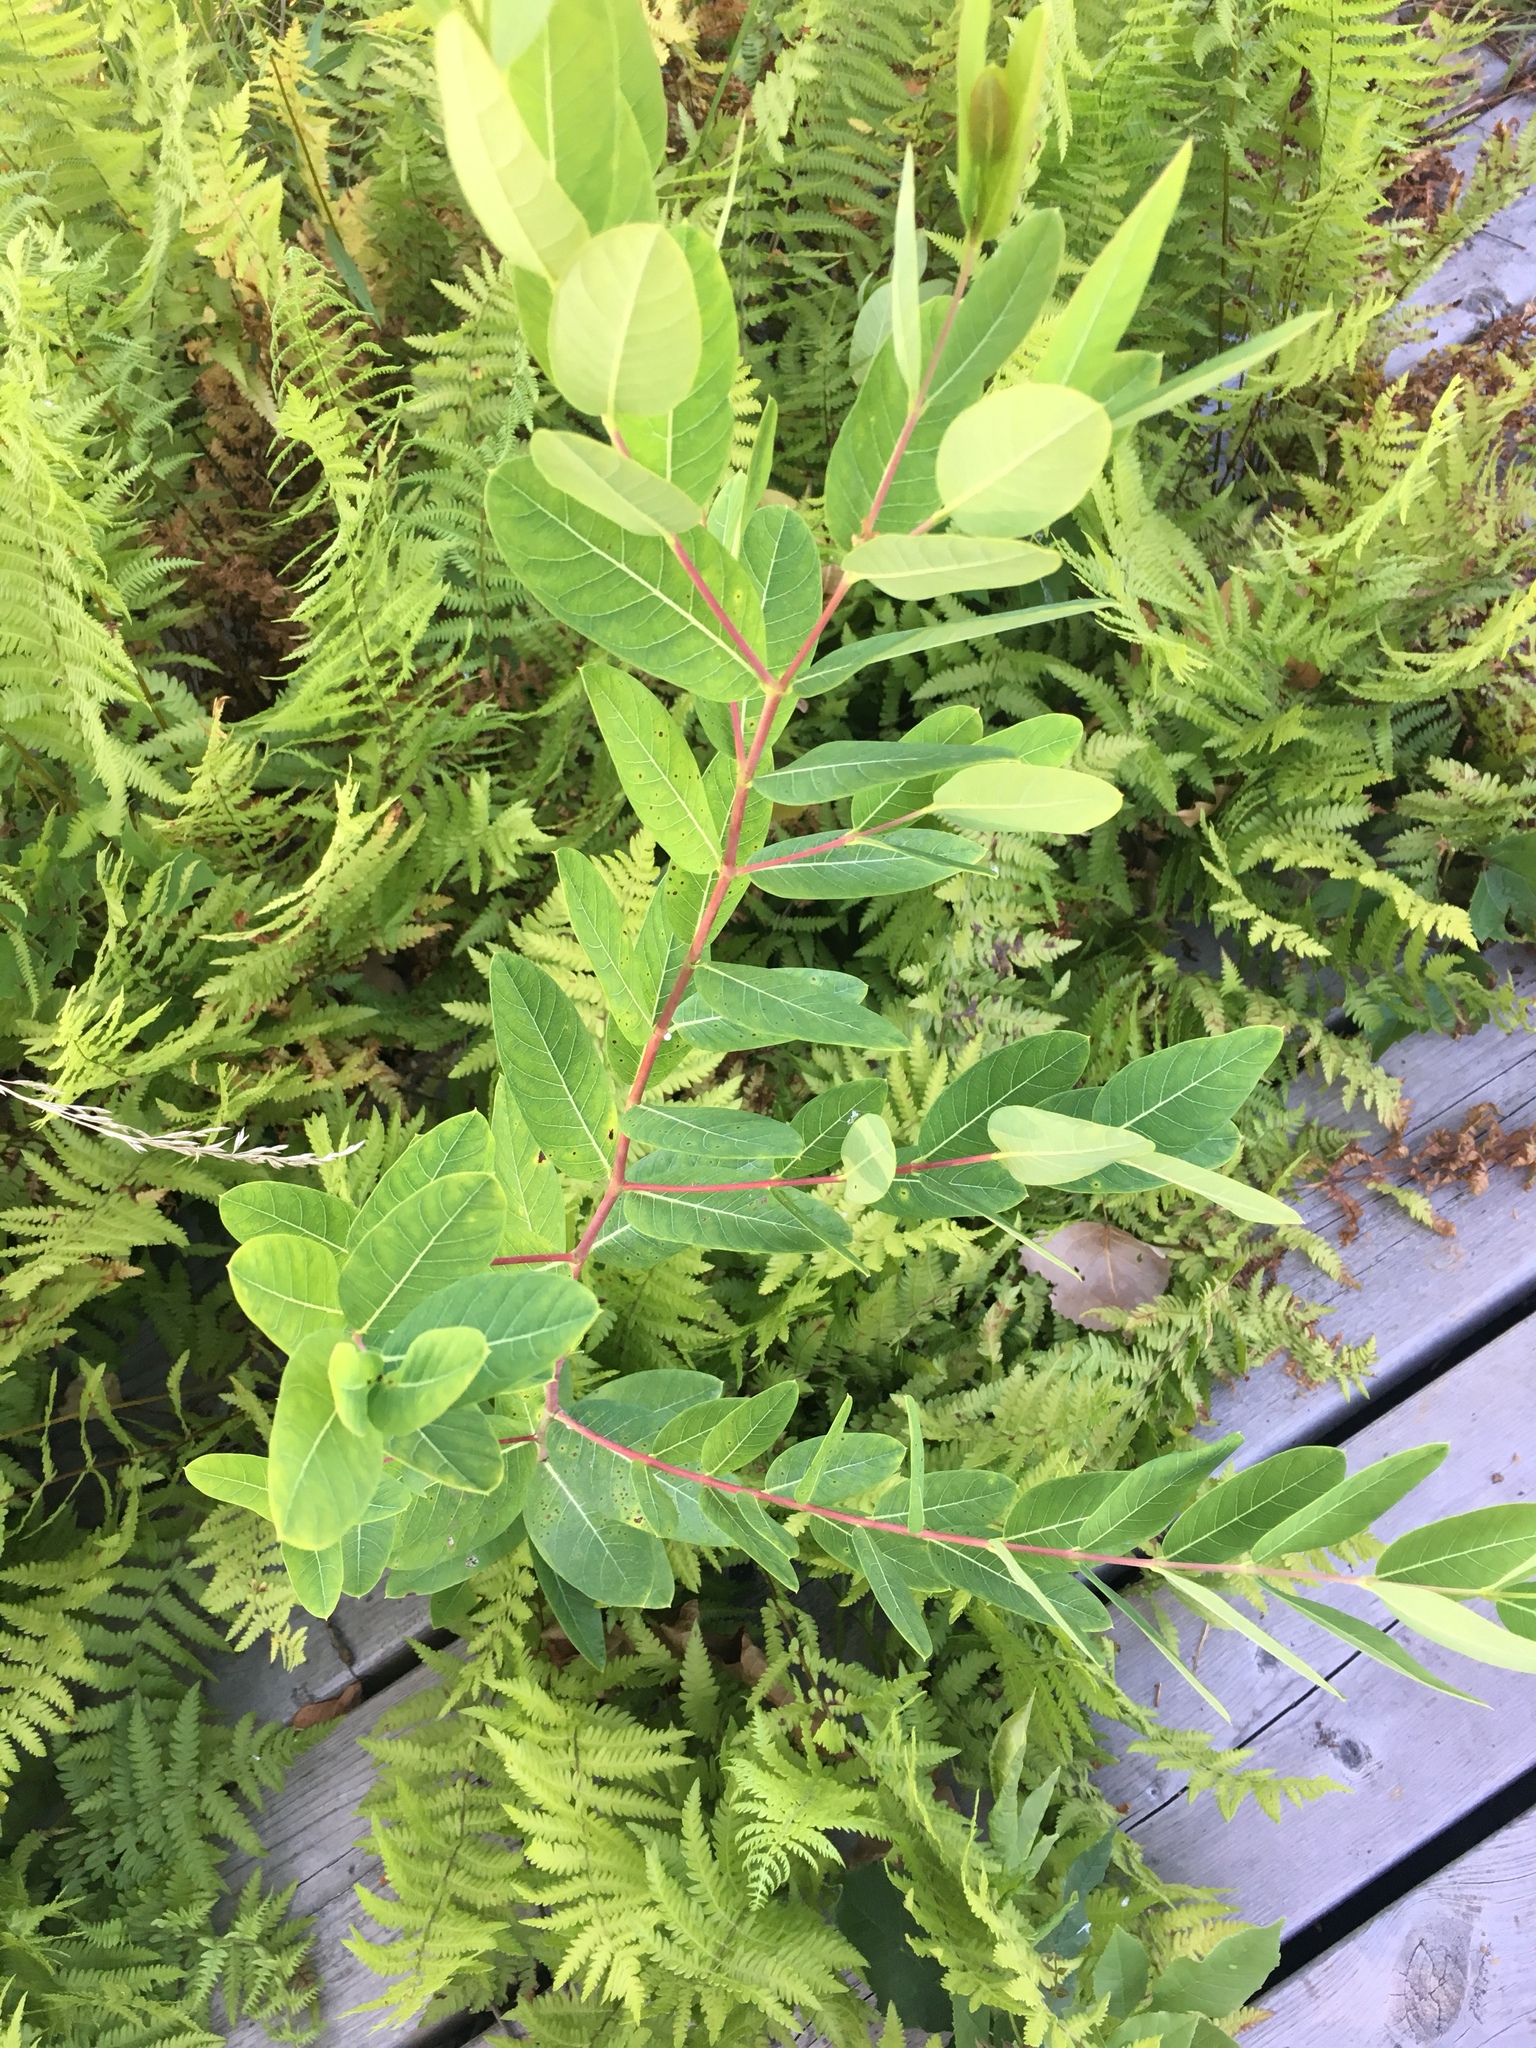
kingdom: Plantae
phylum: Tracheophyta
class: Magnoliopsida
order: Gentianales
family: Apocynaceae
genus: Apocynum
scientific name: Apocynum cannabinum
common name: Hemp dogbane
